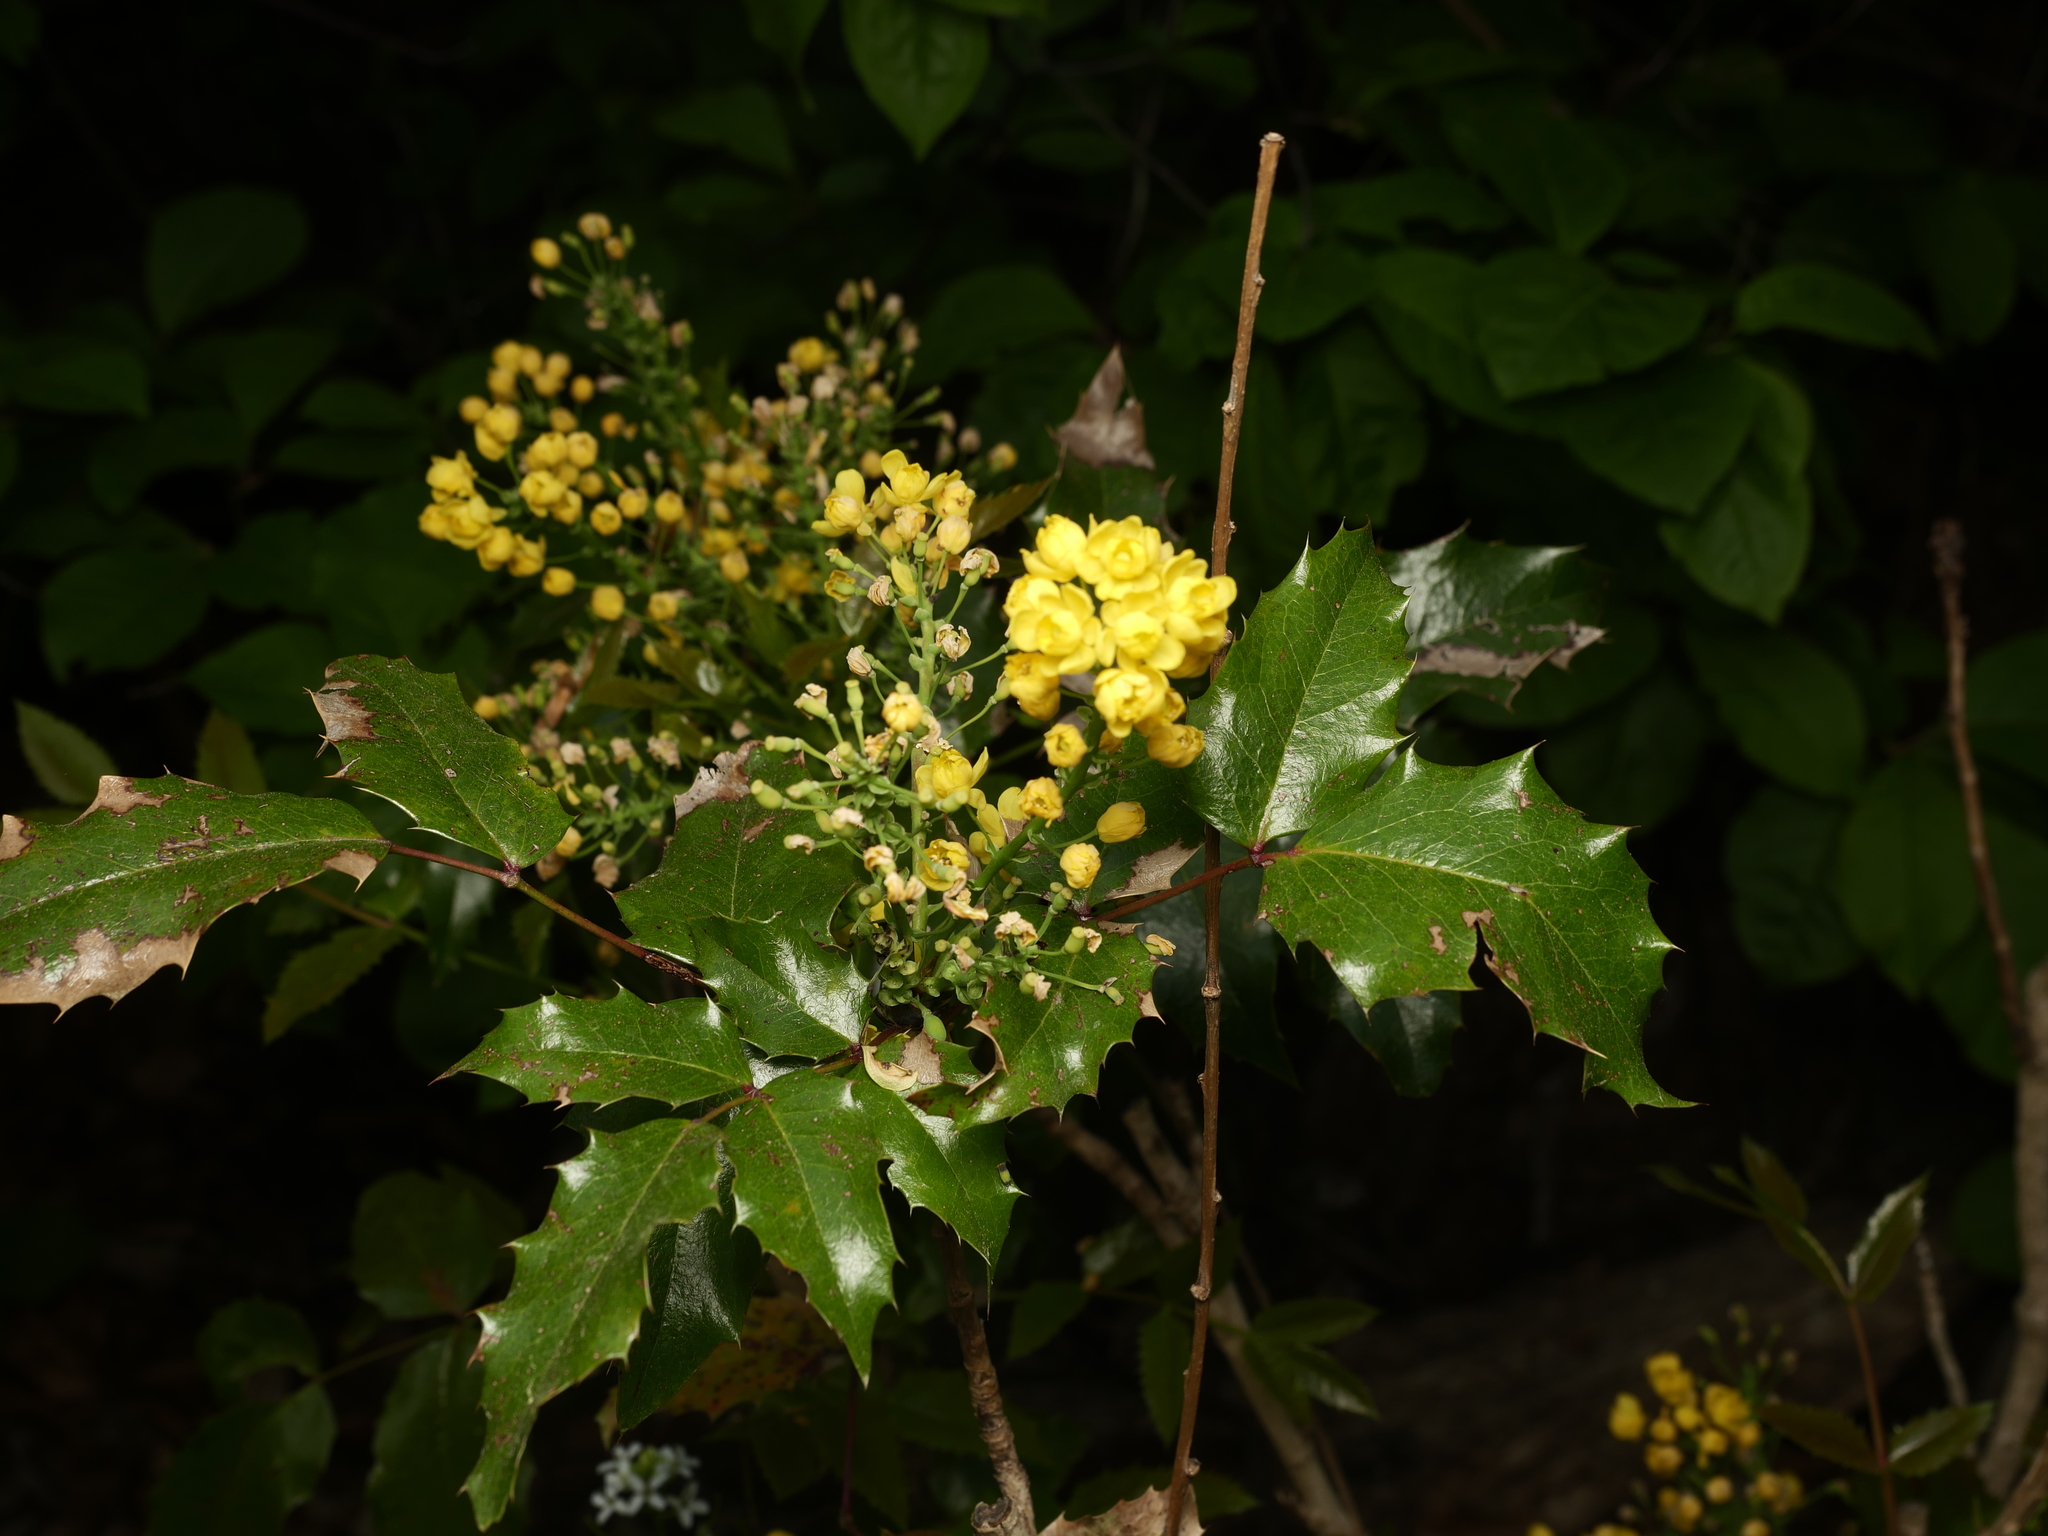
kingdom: Plantae
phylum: Tracheophyta
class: Magnoliopsida
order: Ranunculales
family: Berberidaceae
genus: Mahonia
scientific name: Mahonia aquifolium
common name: Oregon-grape
